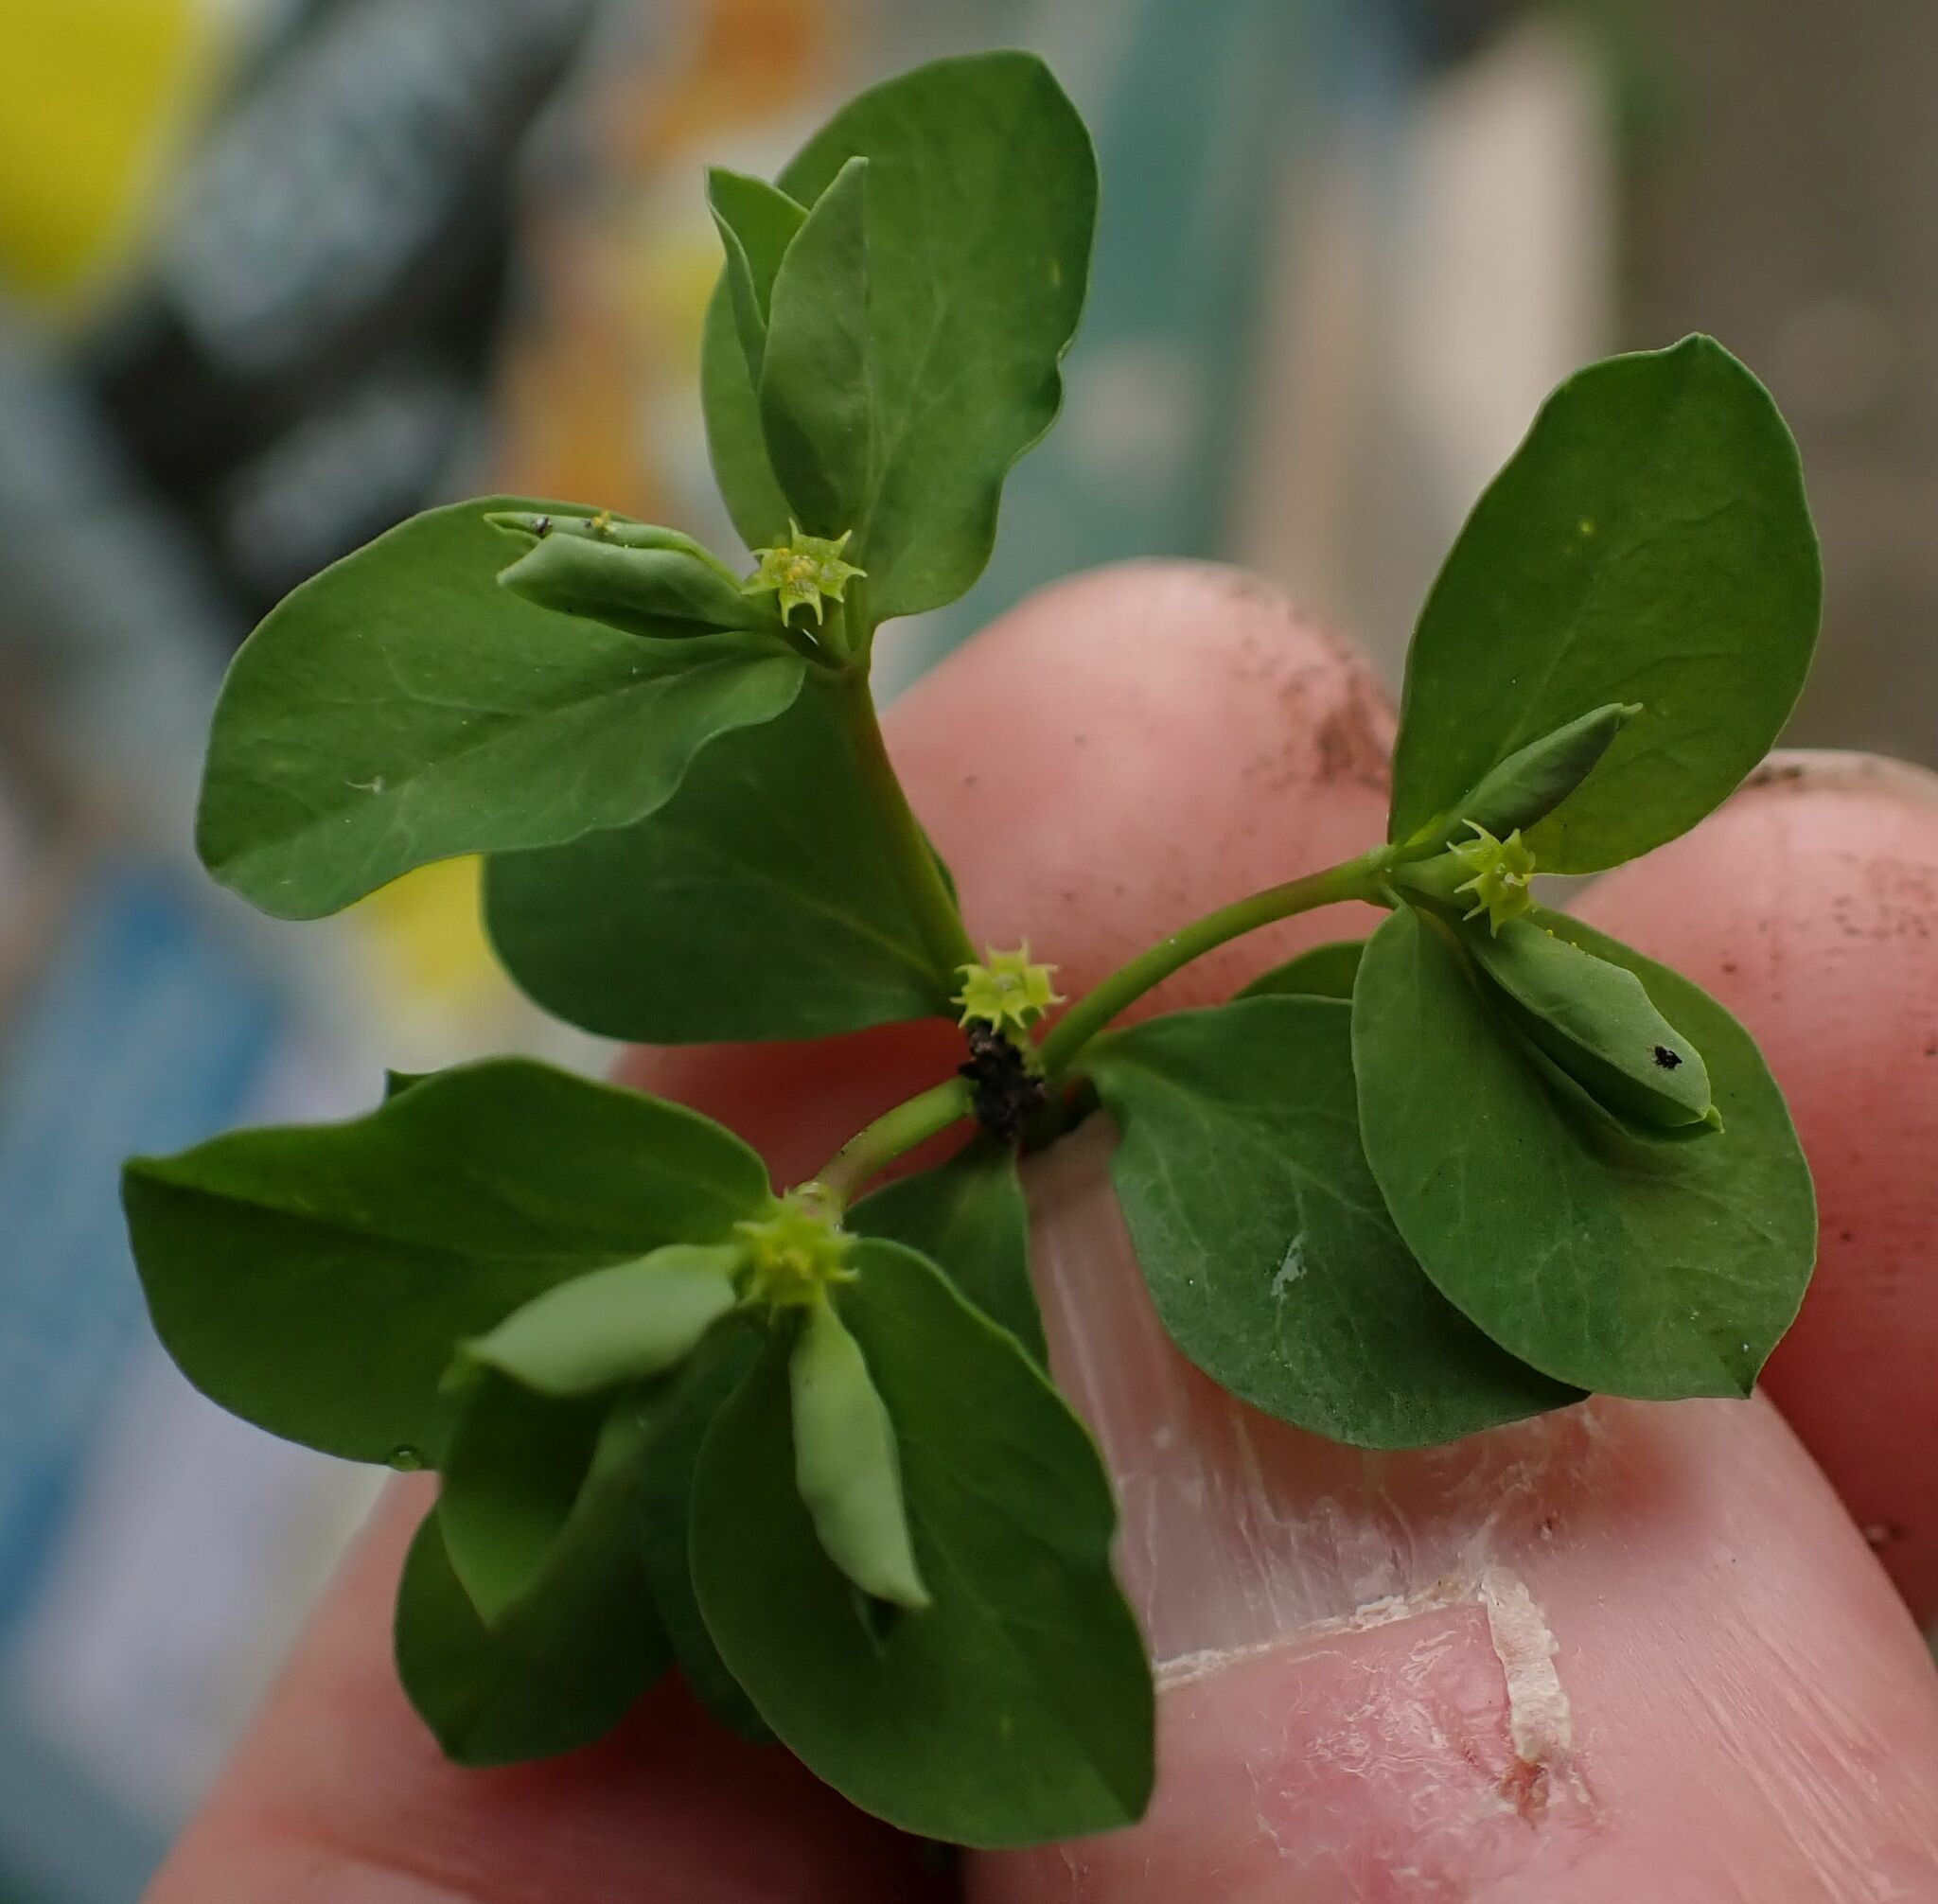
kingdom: Plantae
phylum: Tracheophyta
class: Magnoliopsida
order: Malpighiales
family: Euphorbiaceae
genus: Euphorbia
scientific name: Euphorbia peplus
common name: Petty spurge
